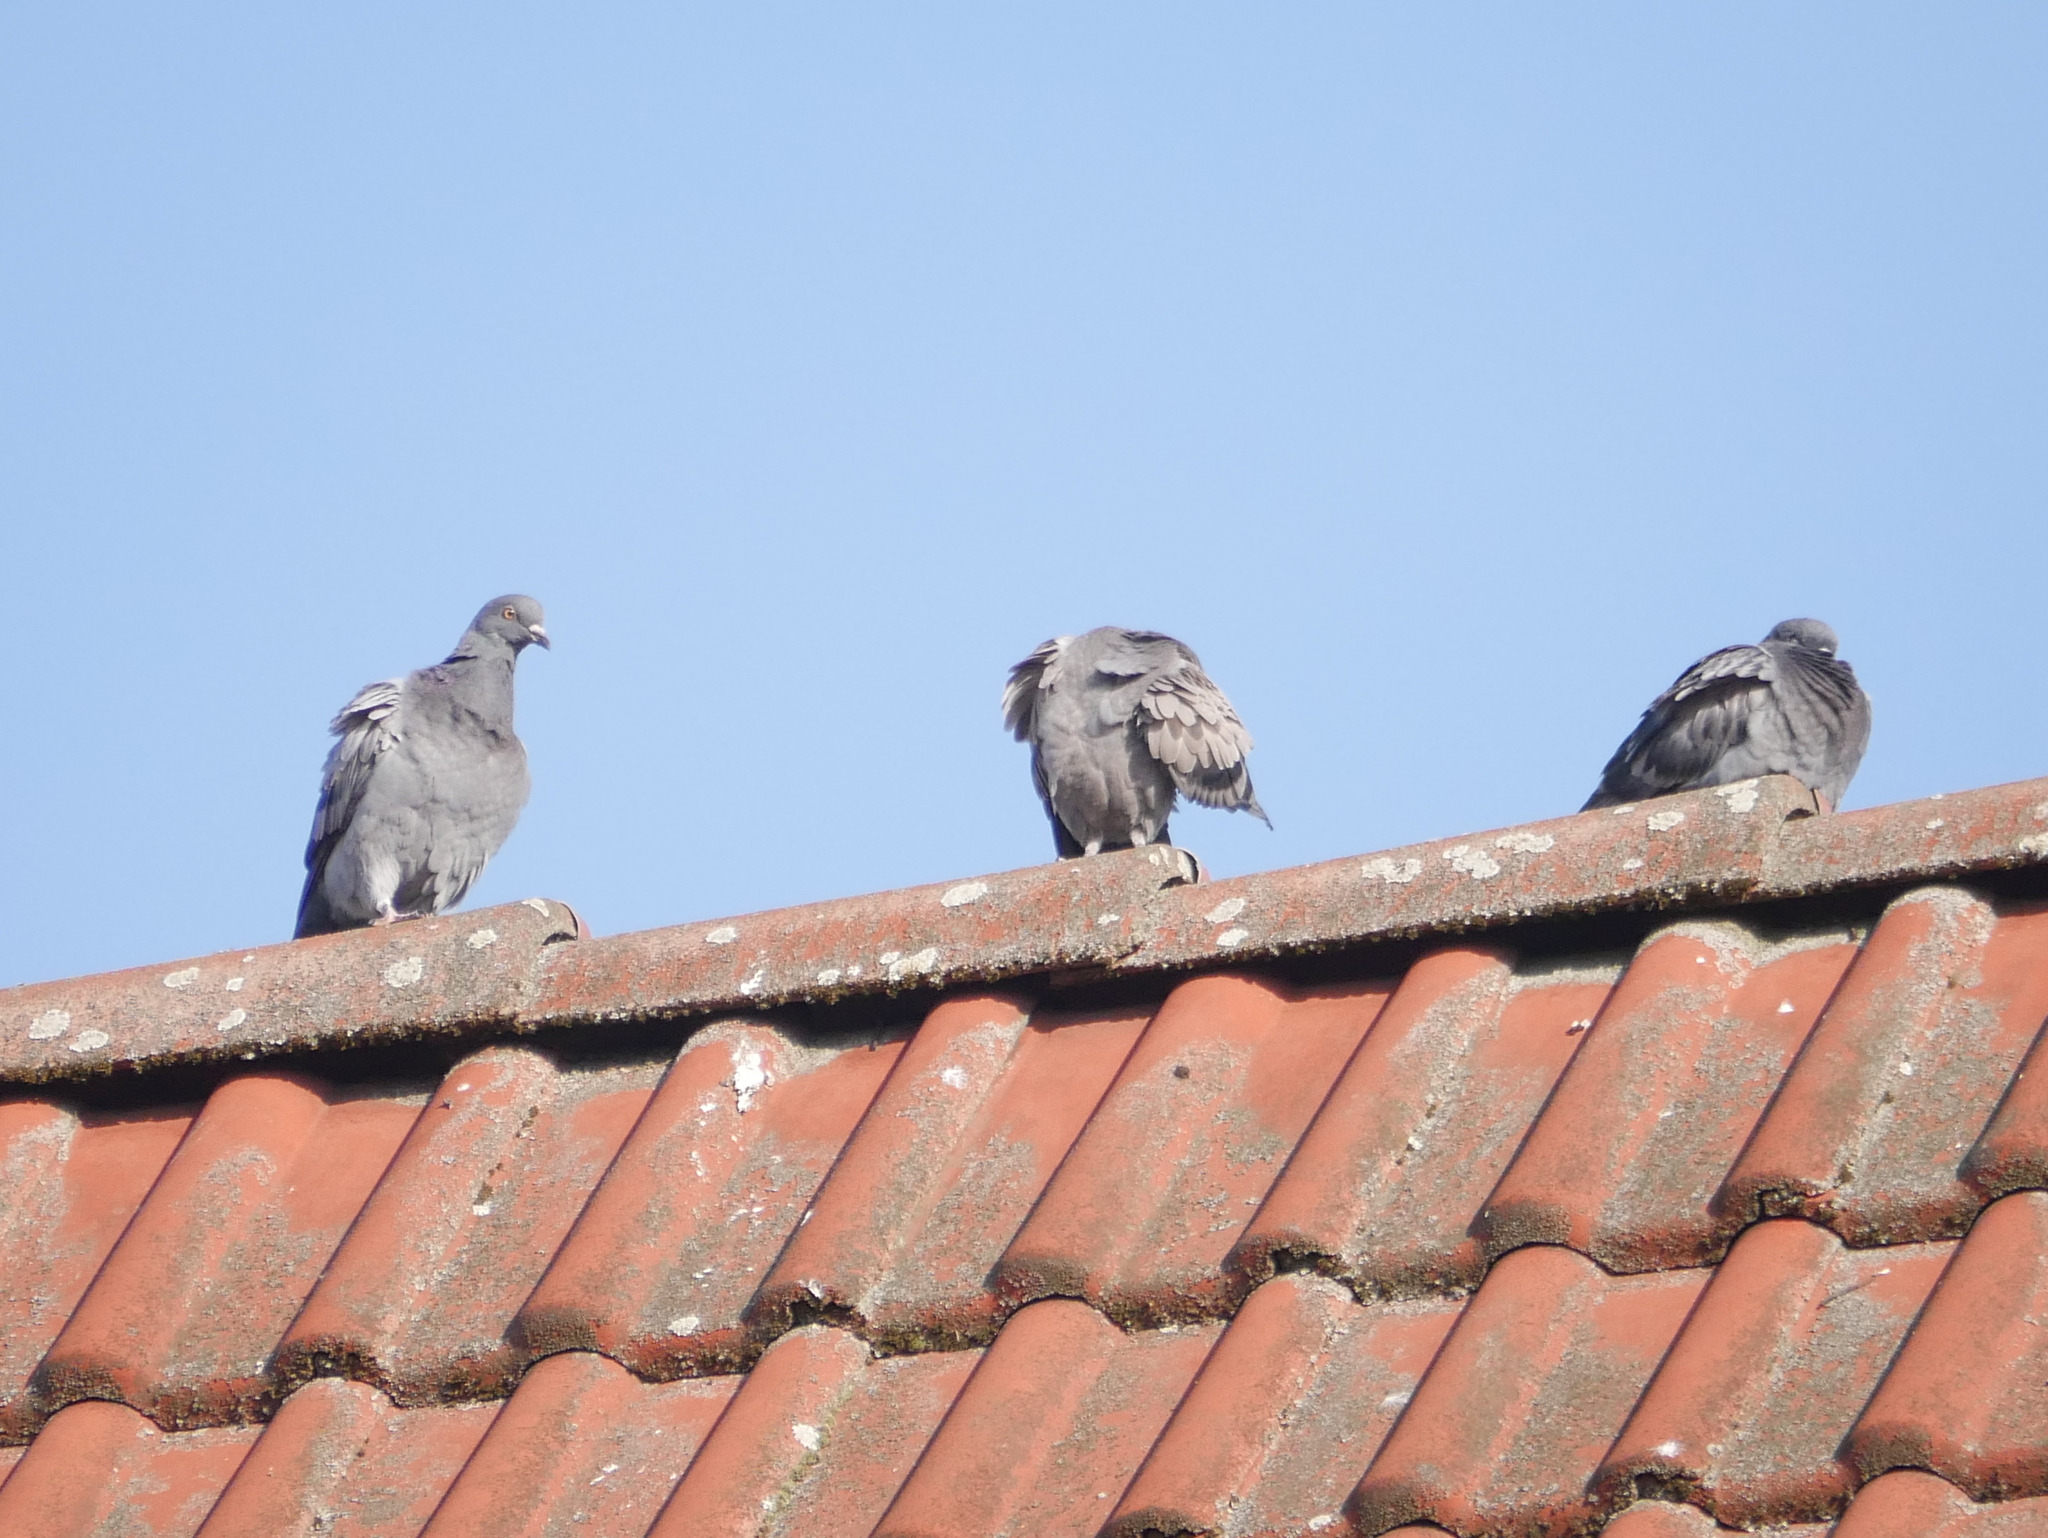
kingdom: Animalia
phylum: Chordata
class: Aves
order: Columbiformes
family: Columbidae
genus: Columba
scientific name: Columba livia
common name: Rock pigeon
